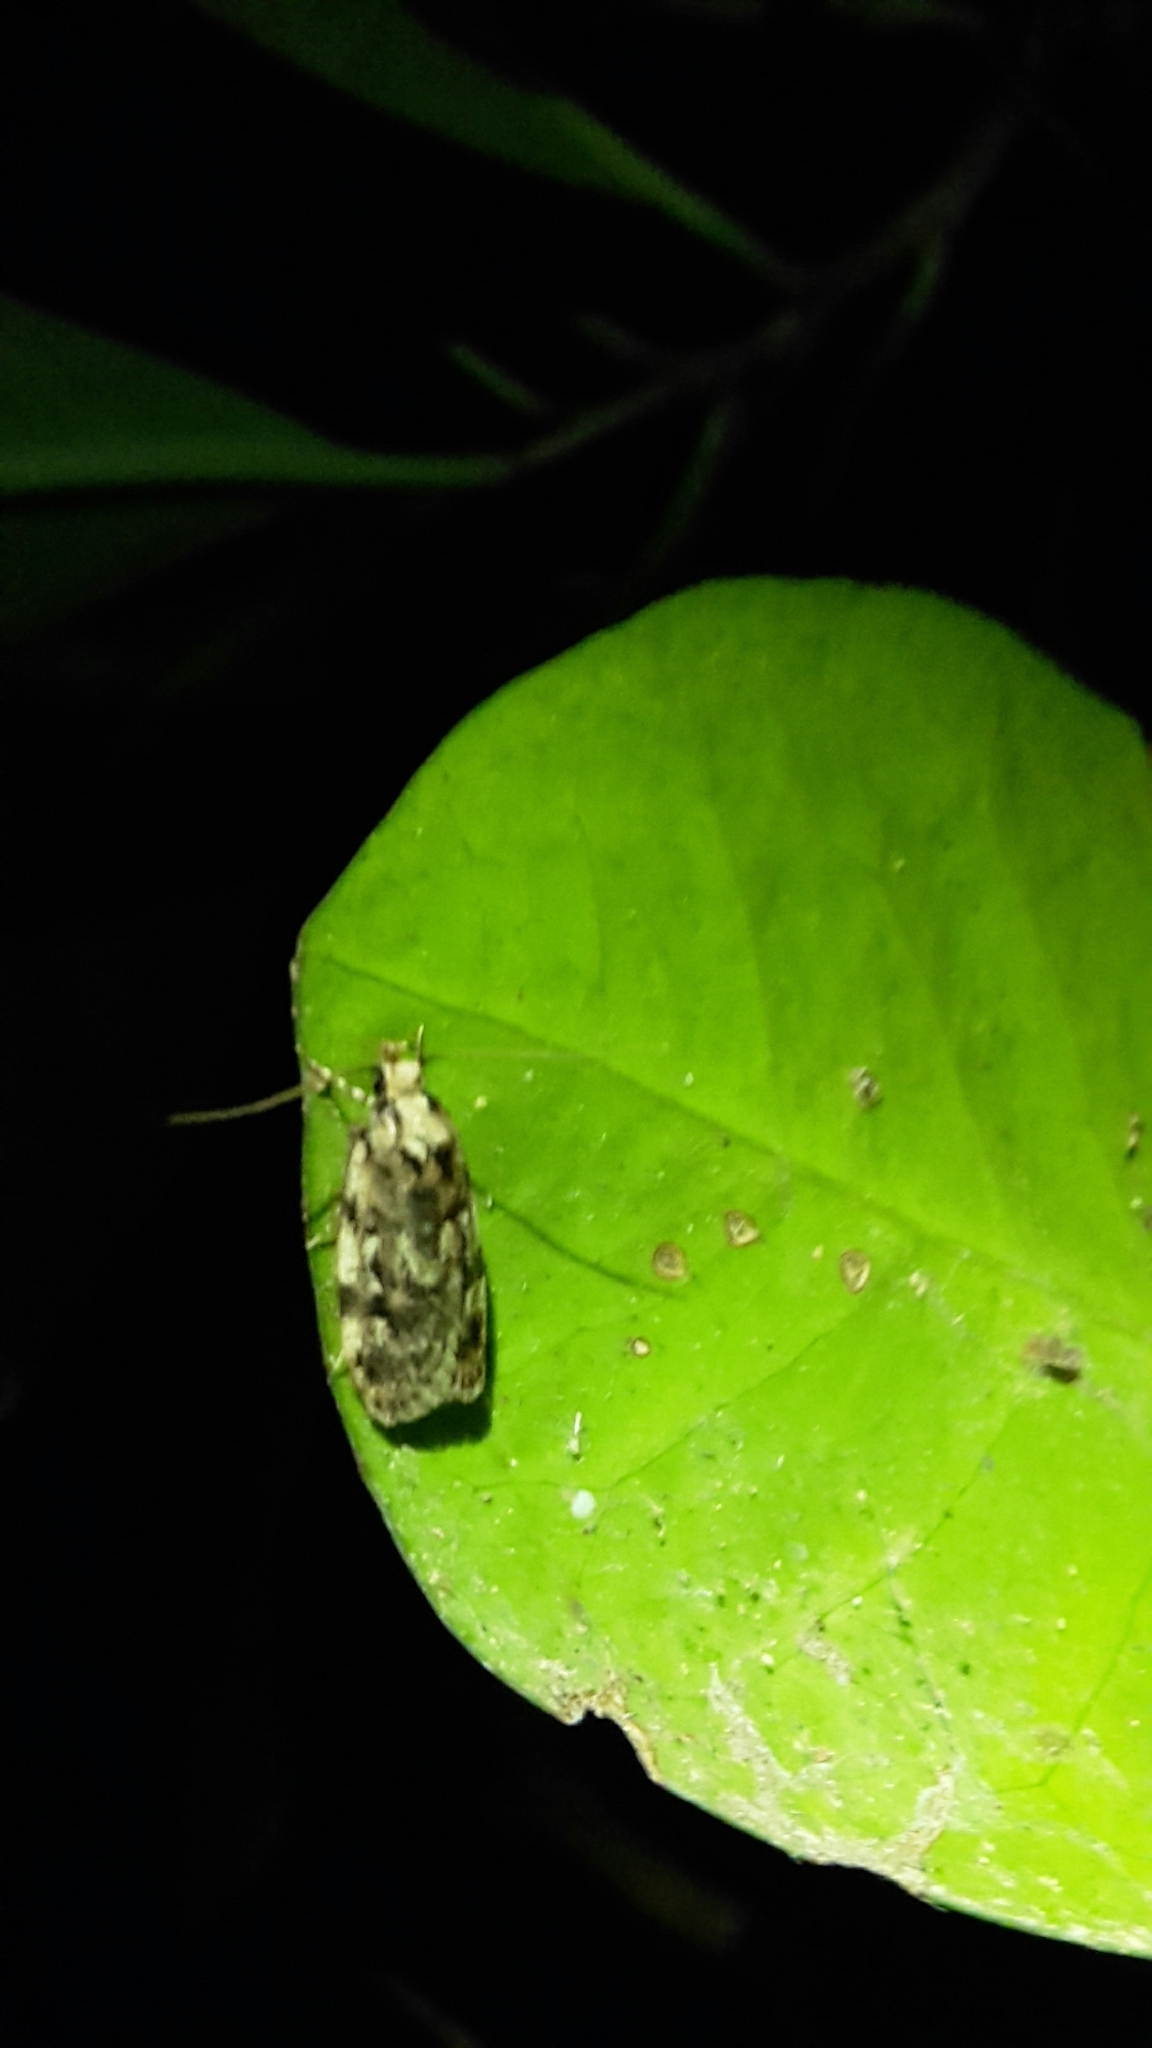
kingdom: Animalia
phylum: Arthropoda
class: Insecta
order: Lepidoptera
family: Oecophoridae
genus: Barea
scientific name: Barea exarcha
